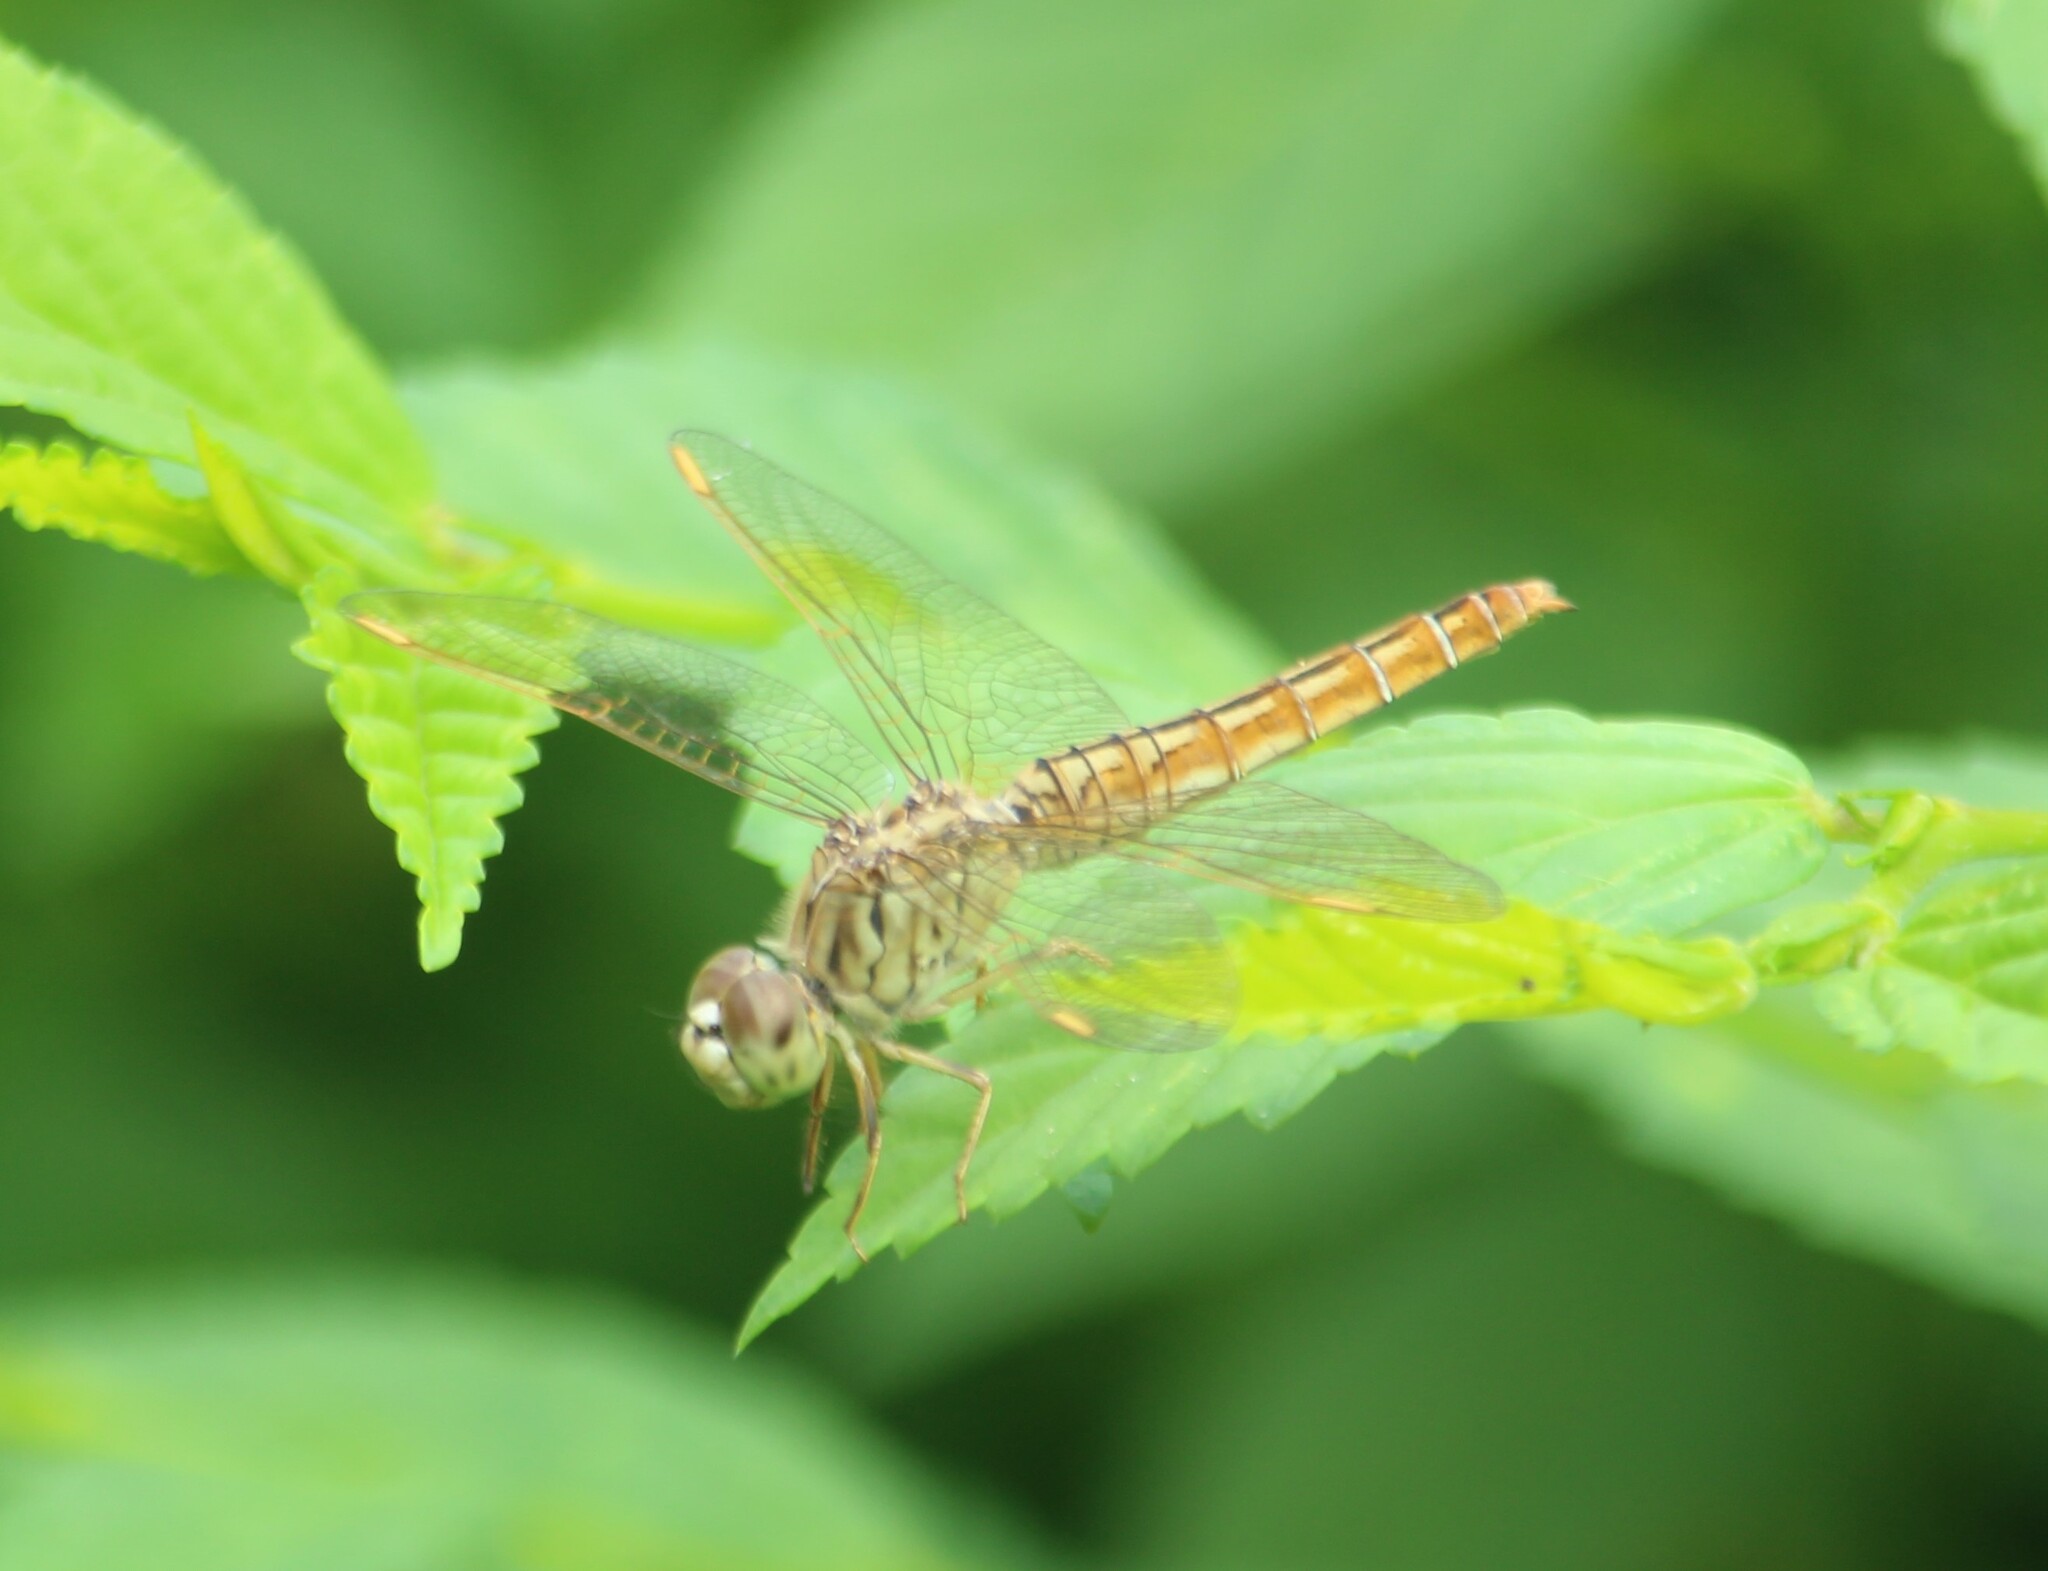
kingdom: Animalia
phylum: Arthropoda
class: Insecta
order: Odonata
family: Libellulidae
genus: Brachythemis
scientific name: Brachythemis contaminata
